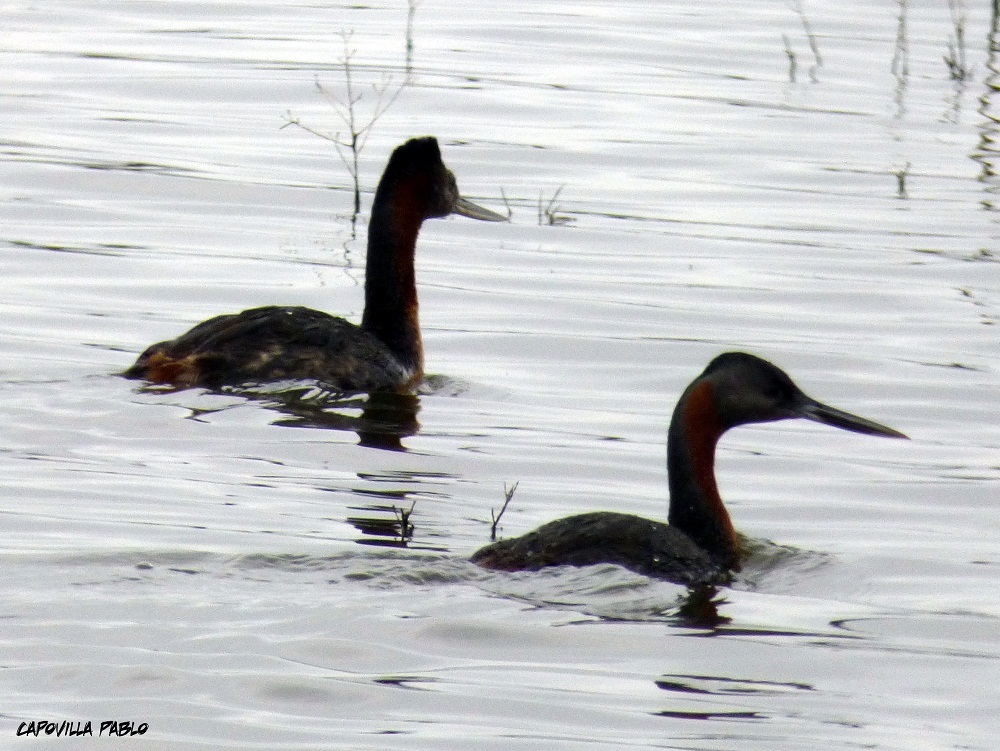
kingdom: Animalia
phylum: Chordata
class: Aves
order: Podicipediformes
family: Podicipedidae
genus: Podiceps
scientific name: Podiceps major
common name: Great grebe
